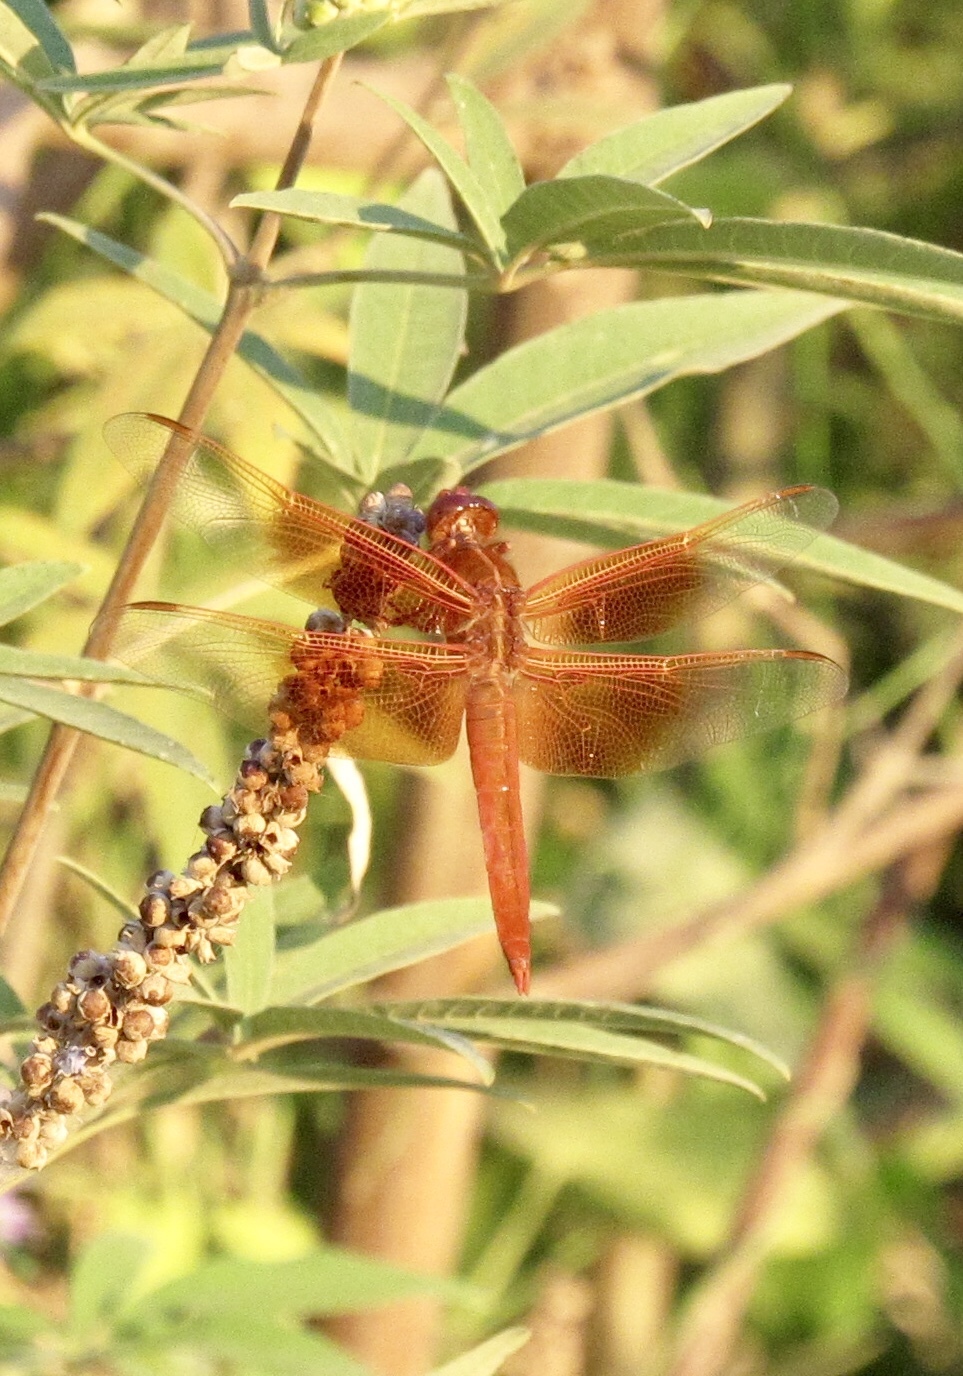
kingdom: Animalia
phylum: Arthropoda
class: Insecta
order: Odonata
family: Libellulidae
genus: Libellula
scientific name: Libellula saturata
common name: Flame skimmer
